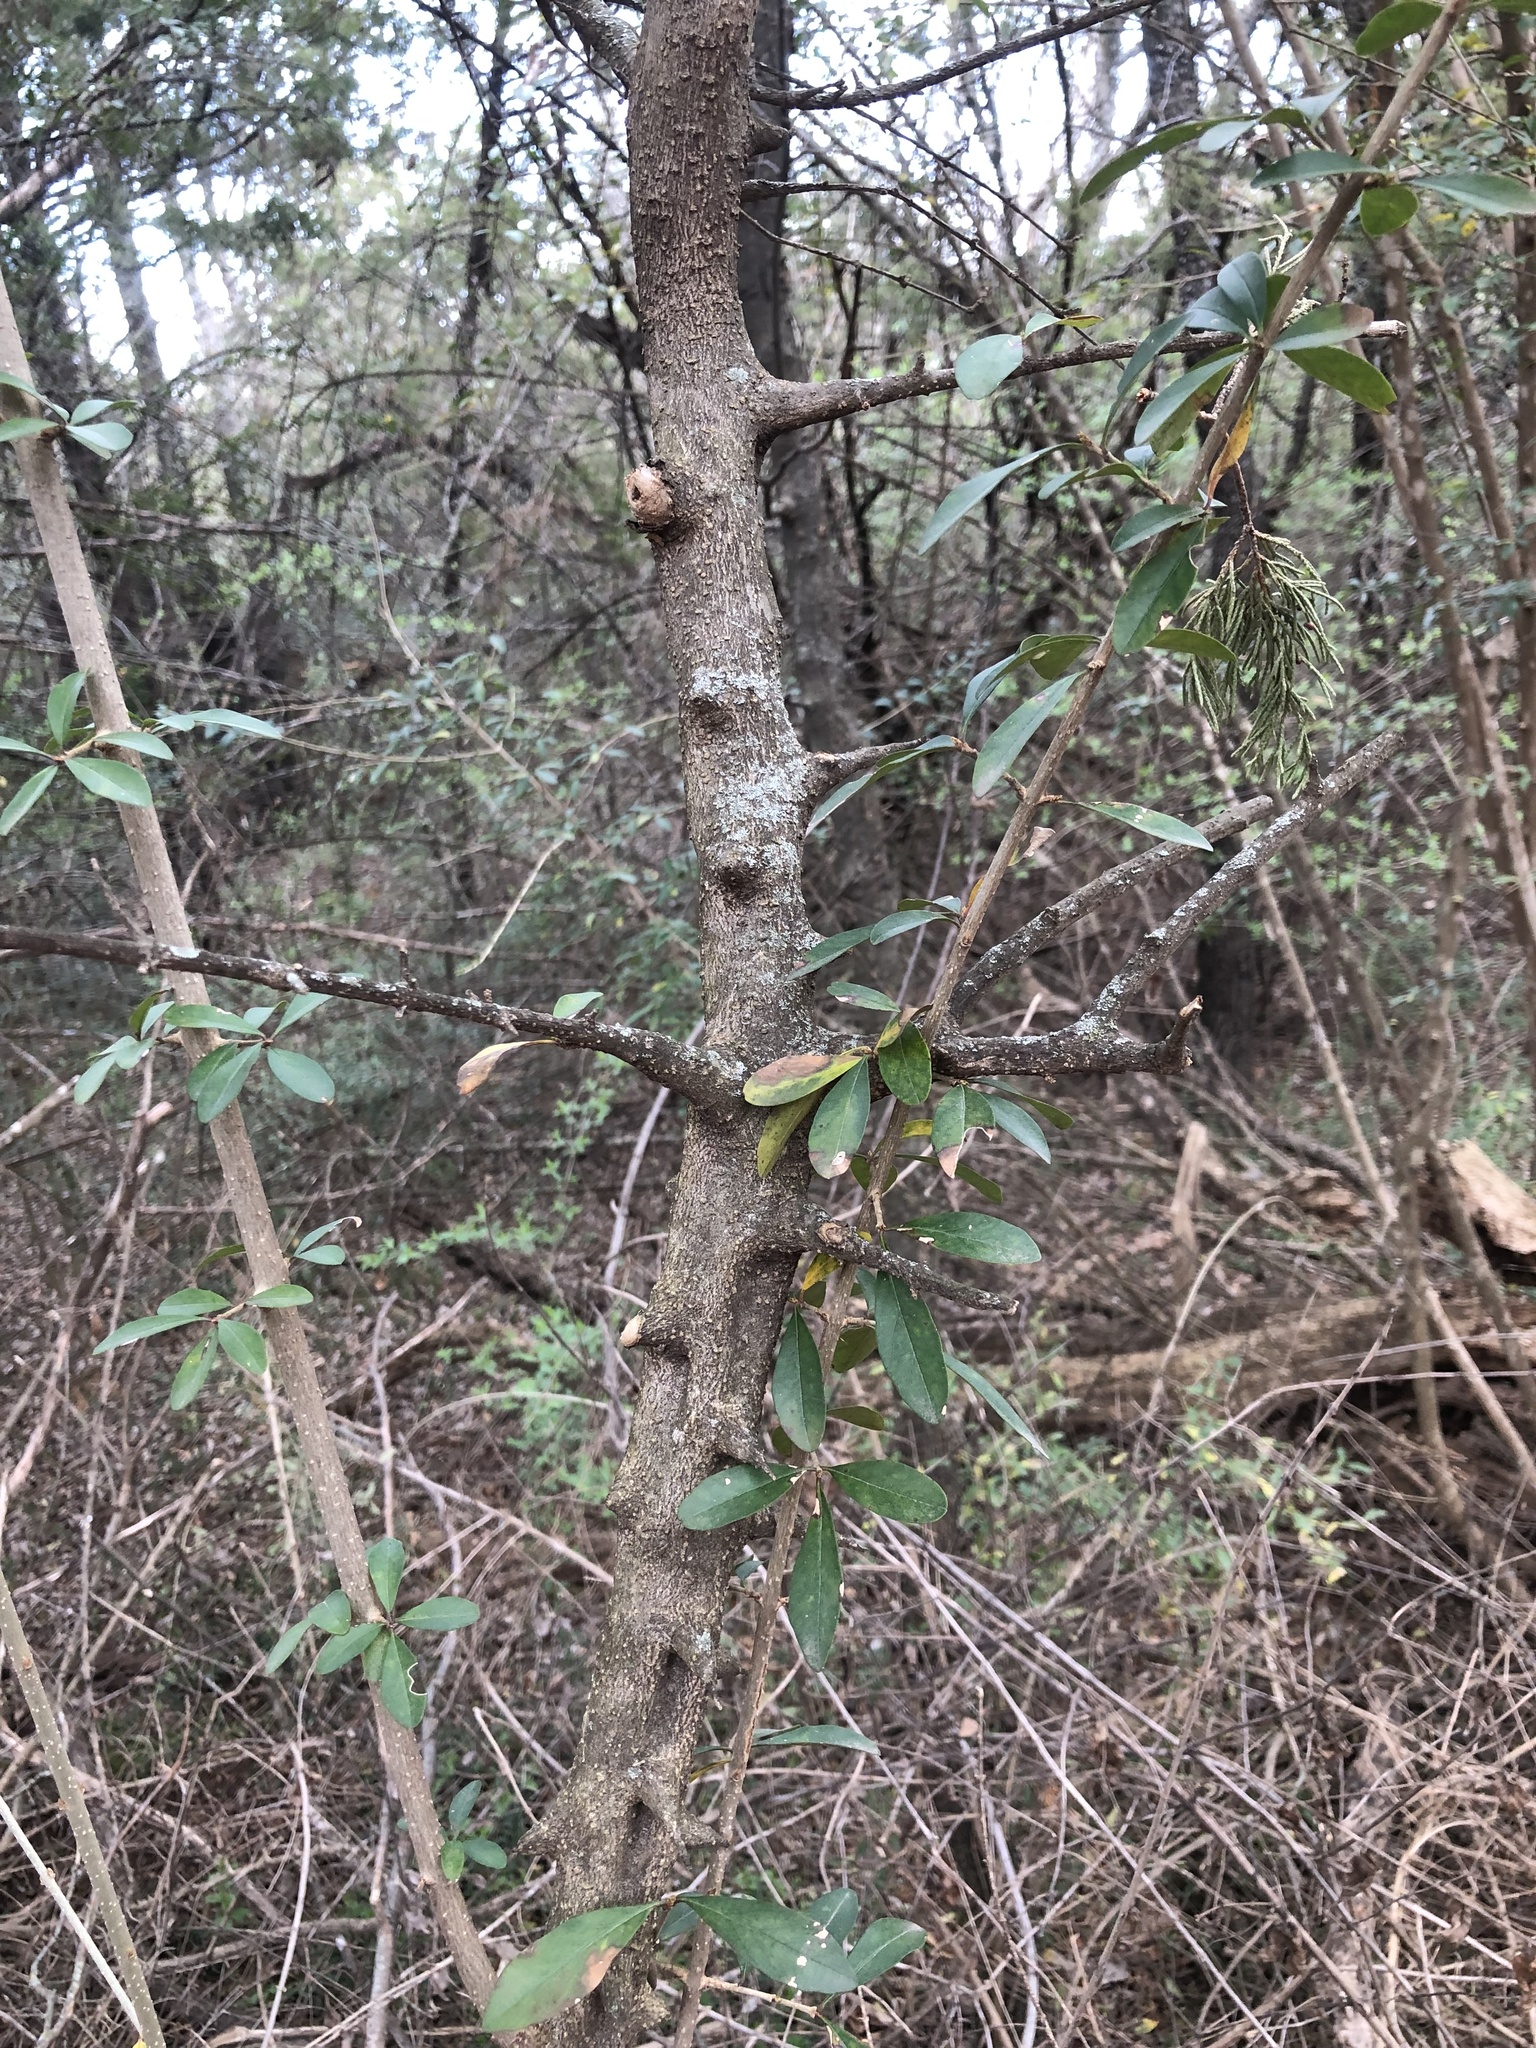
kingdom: Plantae
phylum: Tracheophyta
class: Magnoliopsida
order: Ericales
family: Sapotaceae
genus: Sideroxylon
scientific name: Sideroxylon lanuginosum
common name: Chittamwood
